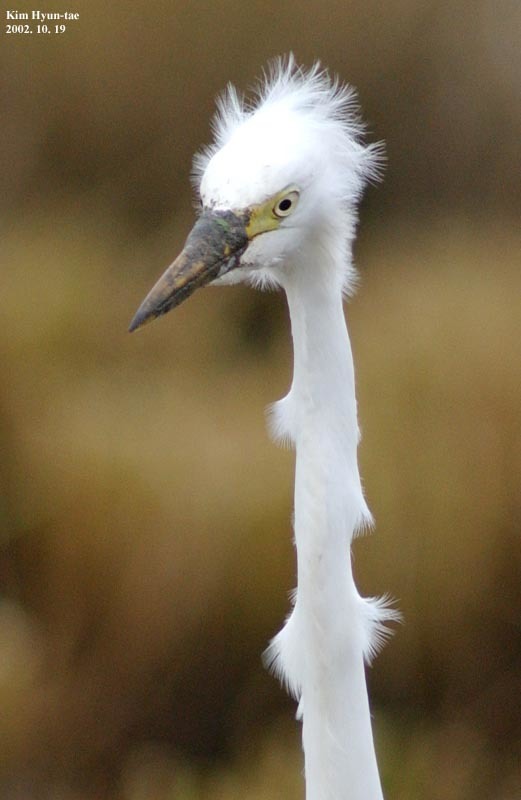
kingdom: Animalia
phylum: Chordata
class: Aves
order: Pelecaniformes
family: Ardeidae
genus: Egretta
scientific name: Egretta intermedia
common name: Intermediate egret
